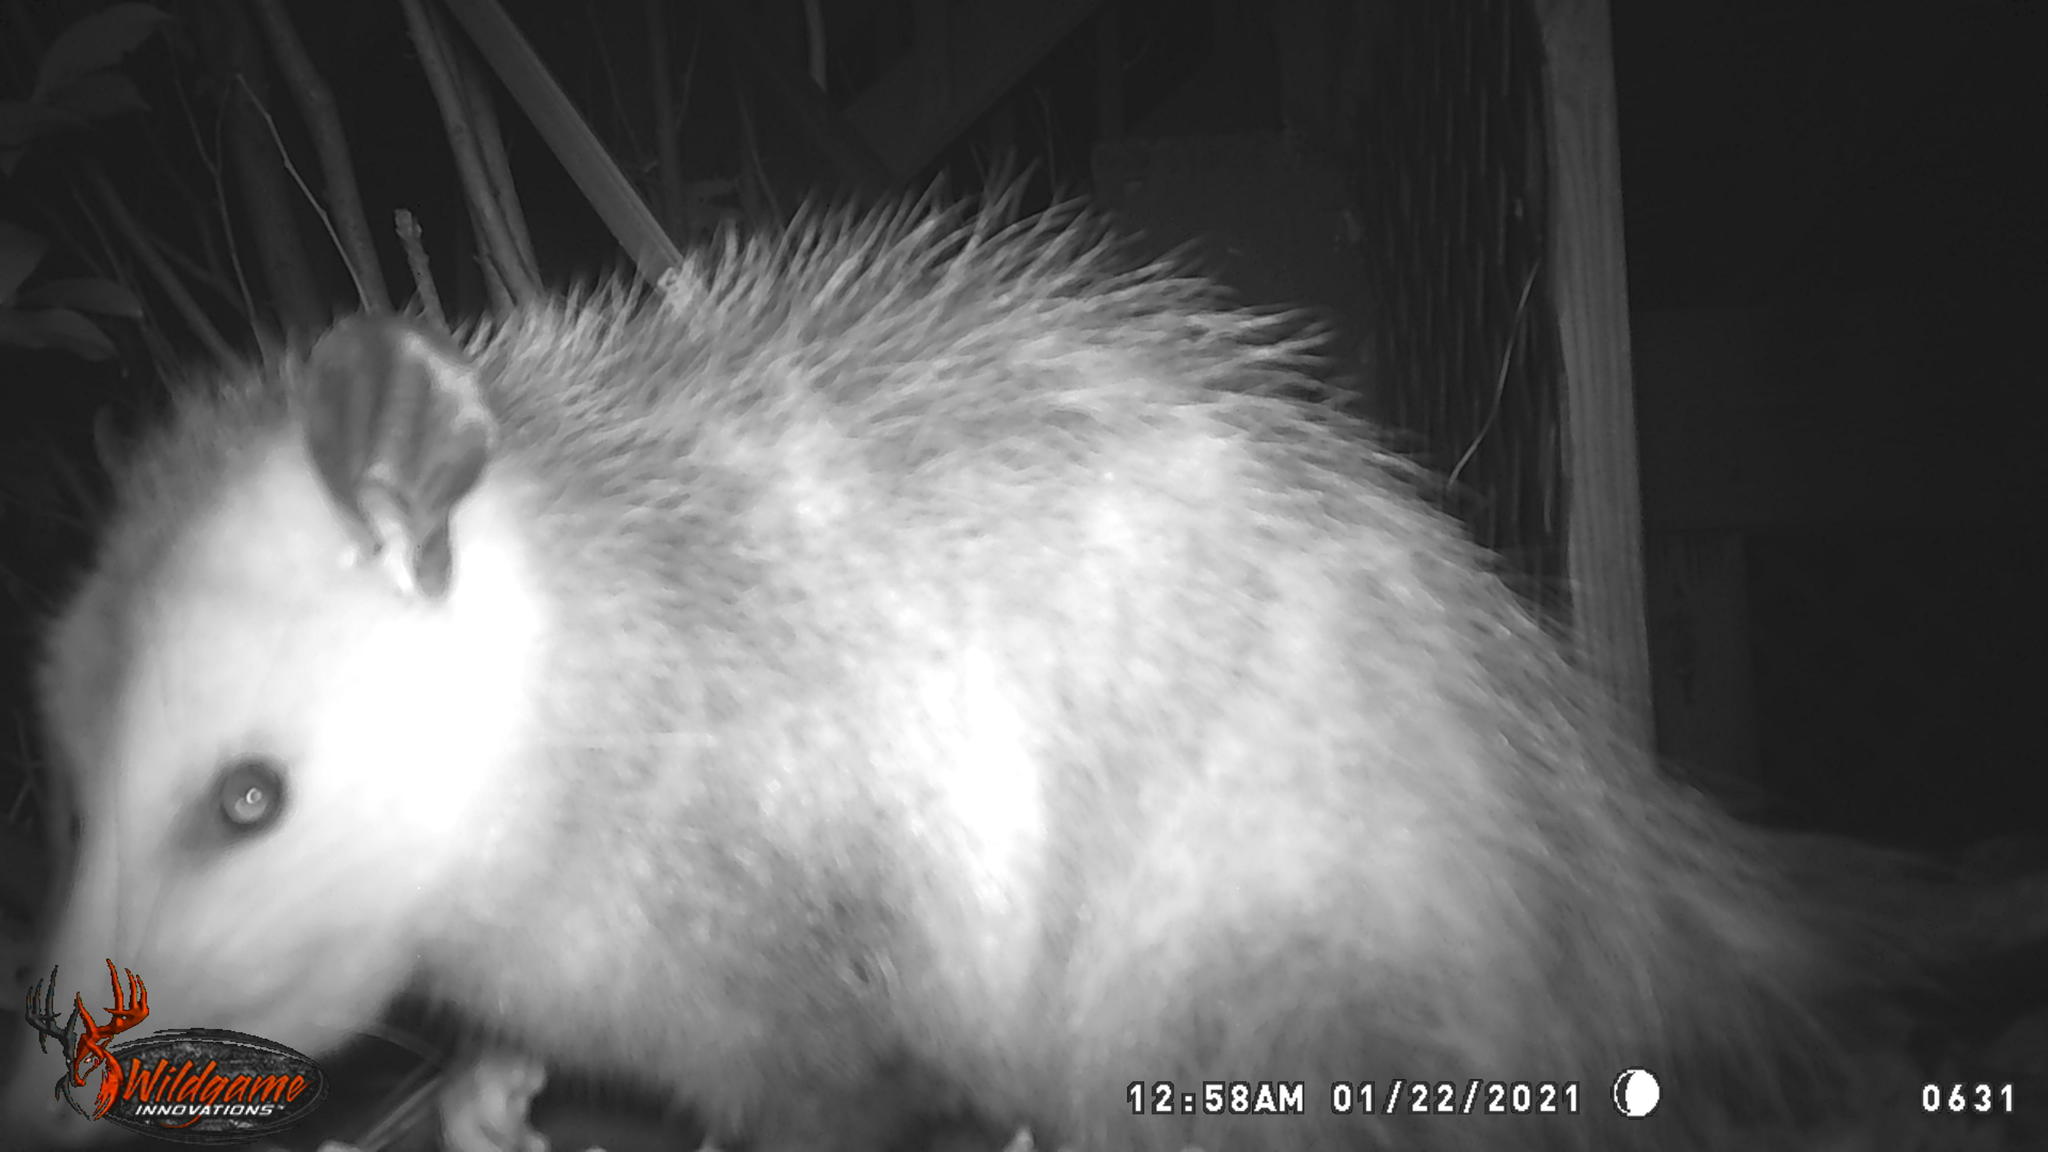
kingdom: Animalia
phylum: Chordata
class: Mammalia
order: Didelphimorphia
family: Didelphidae
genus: Didelphis
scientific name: Didelphis virginiana
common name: Virginia opossum
